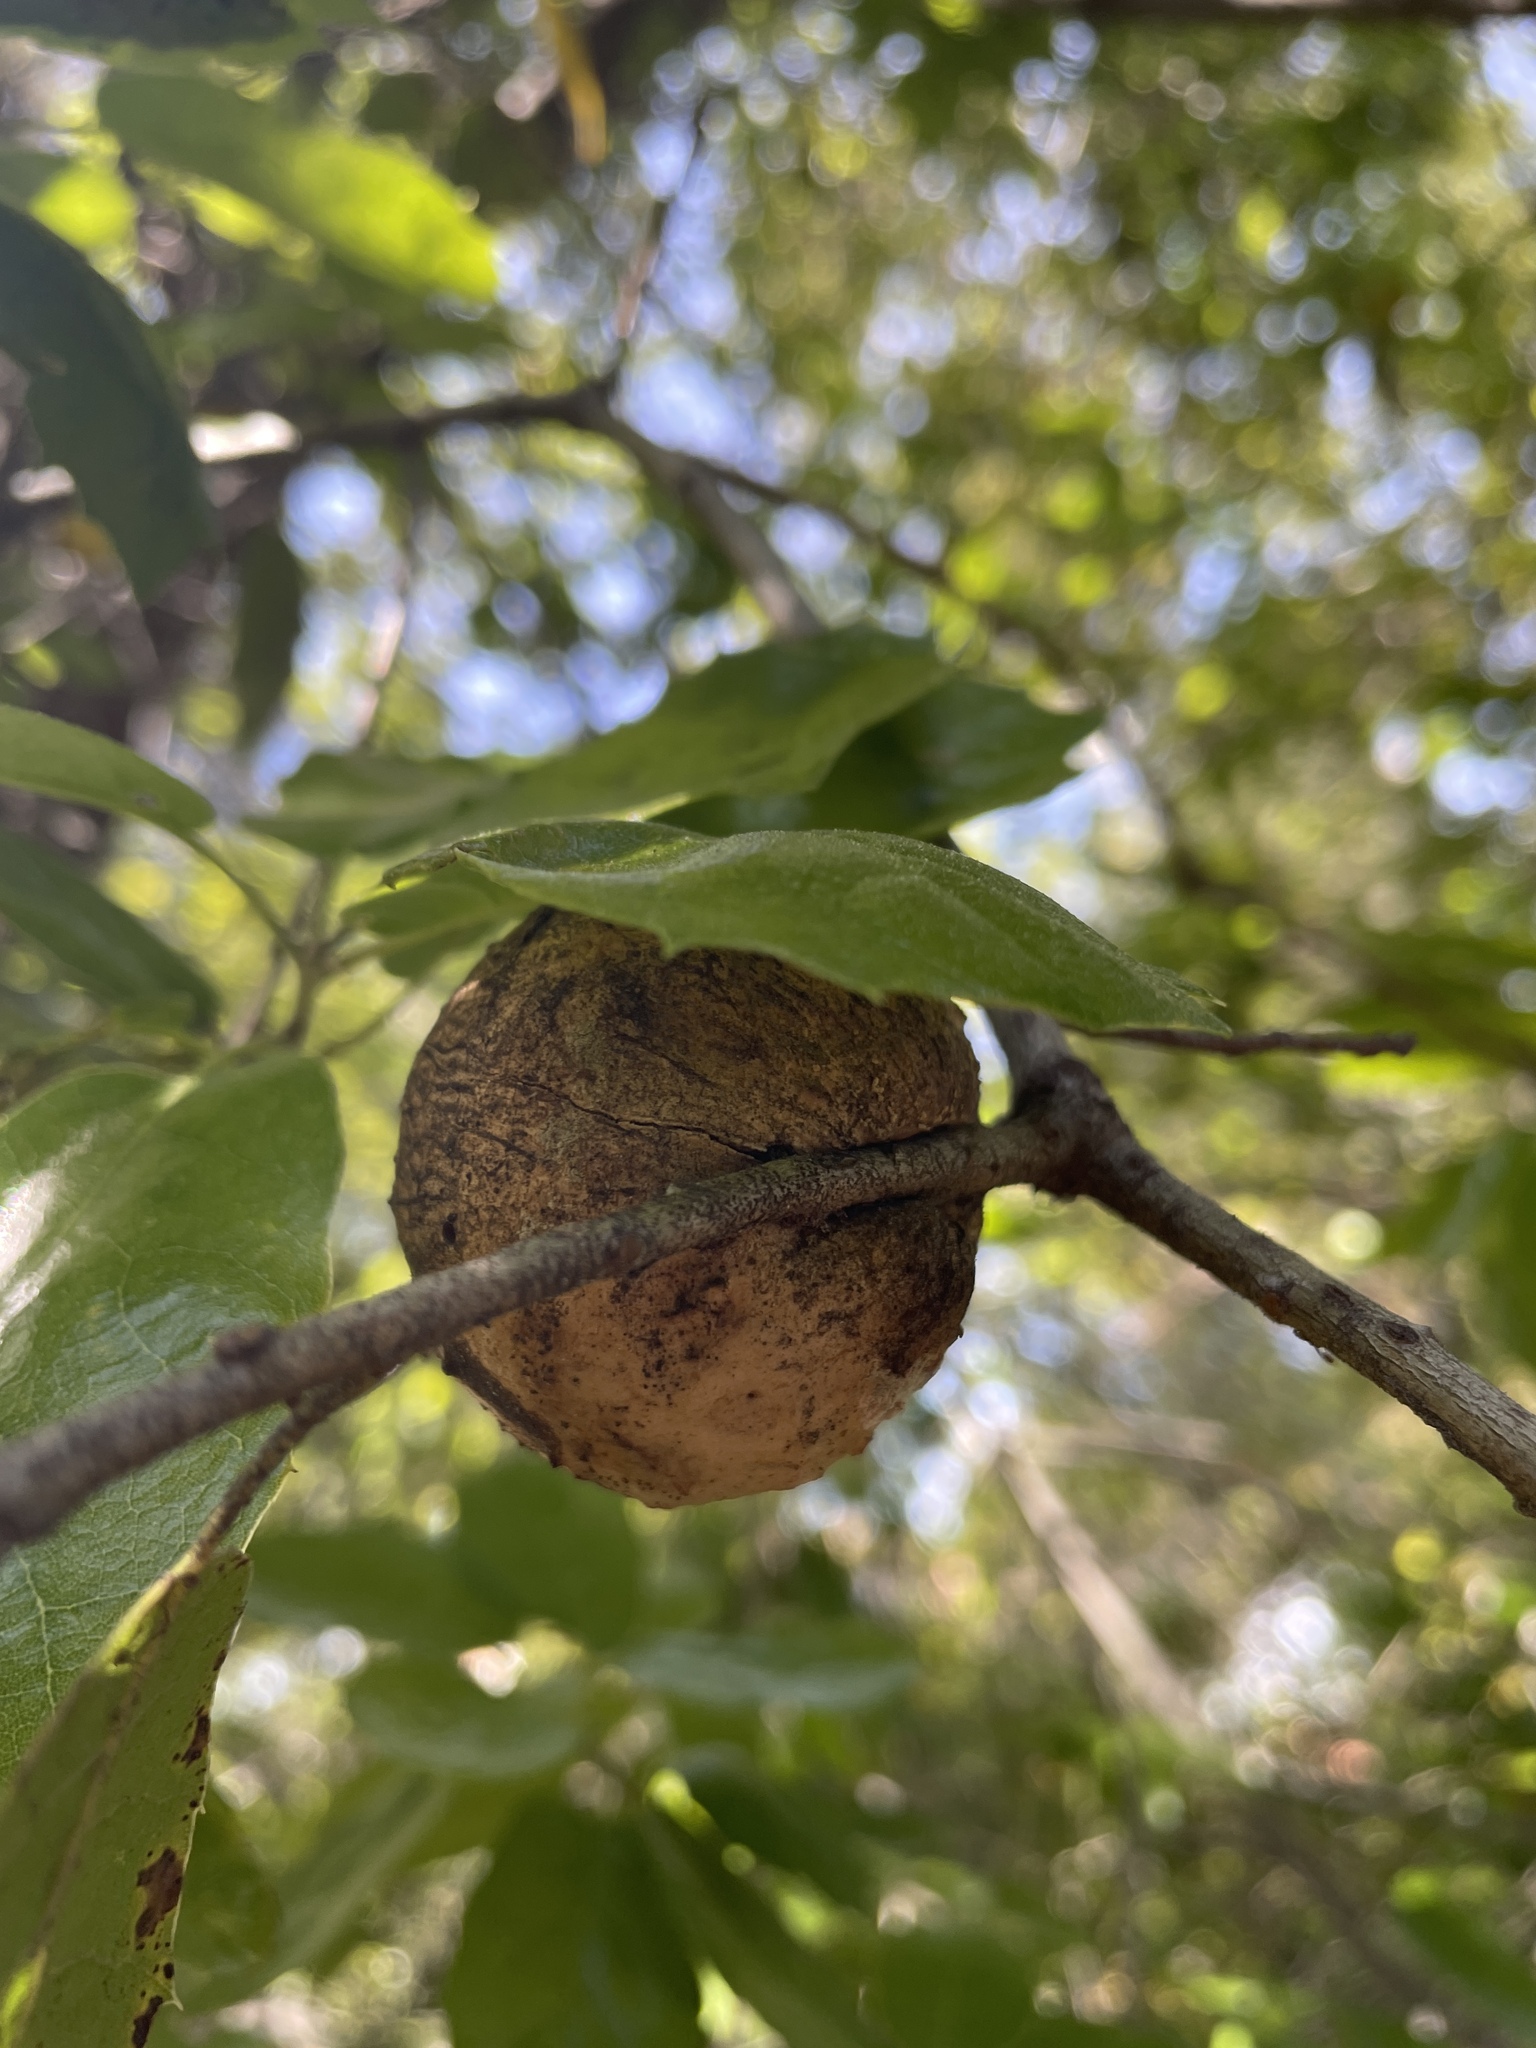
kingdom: Animalia
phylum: Arthropoda
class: Insecta
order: Hymenoptera
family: Cynipidae
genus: Amphibolips
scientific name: Amphibolips quercuspomiformis
